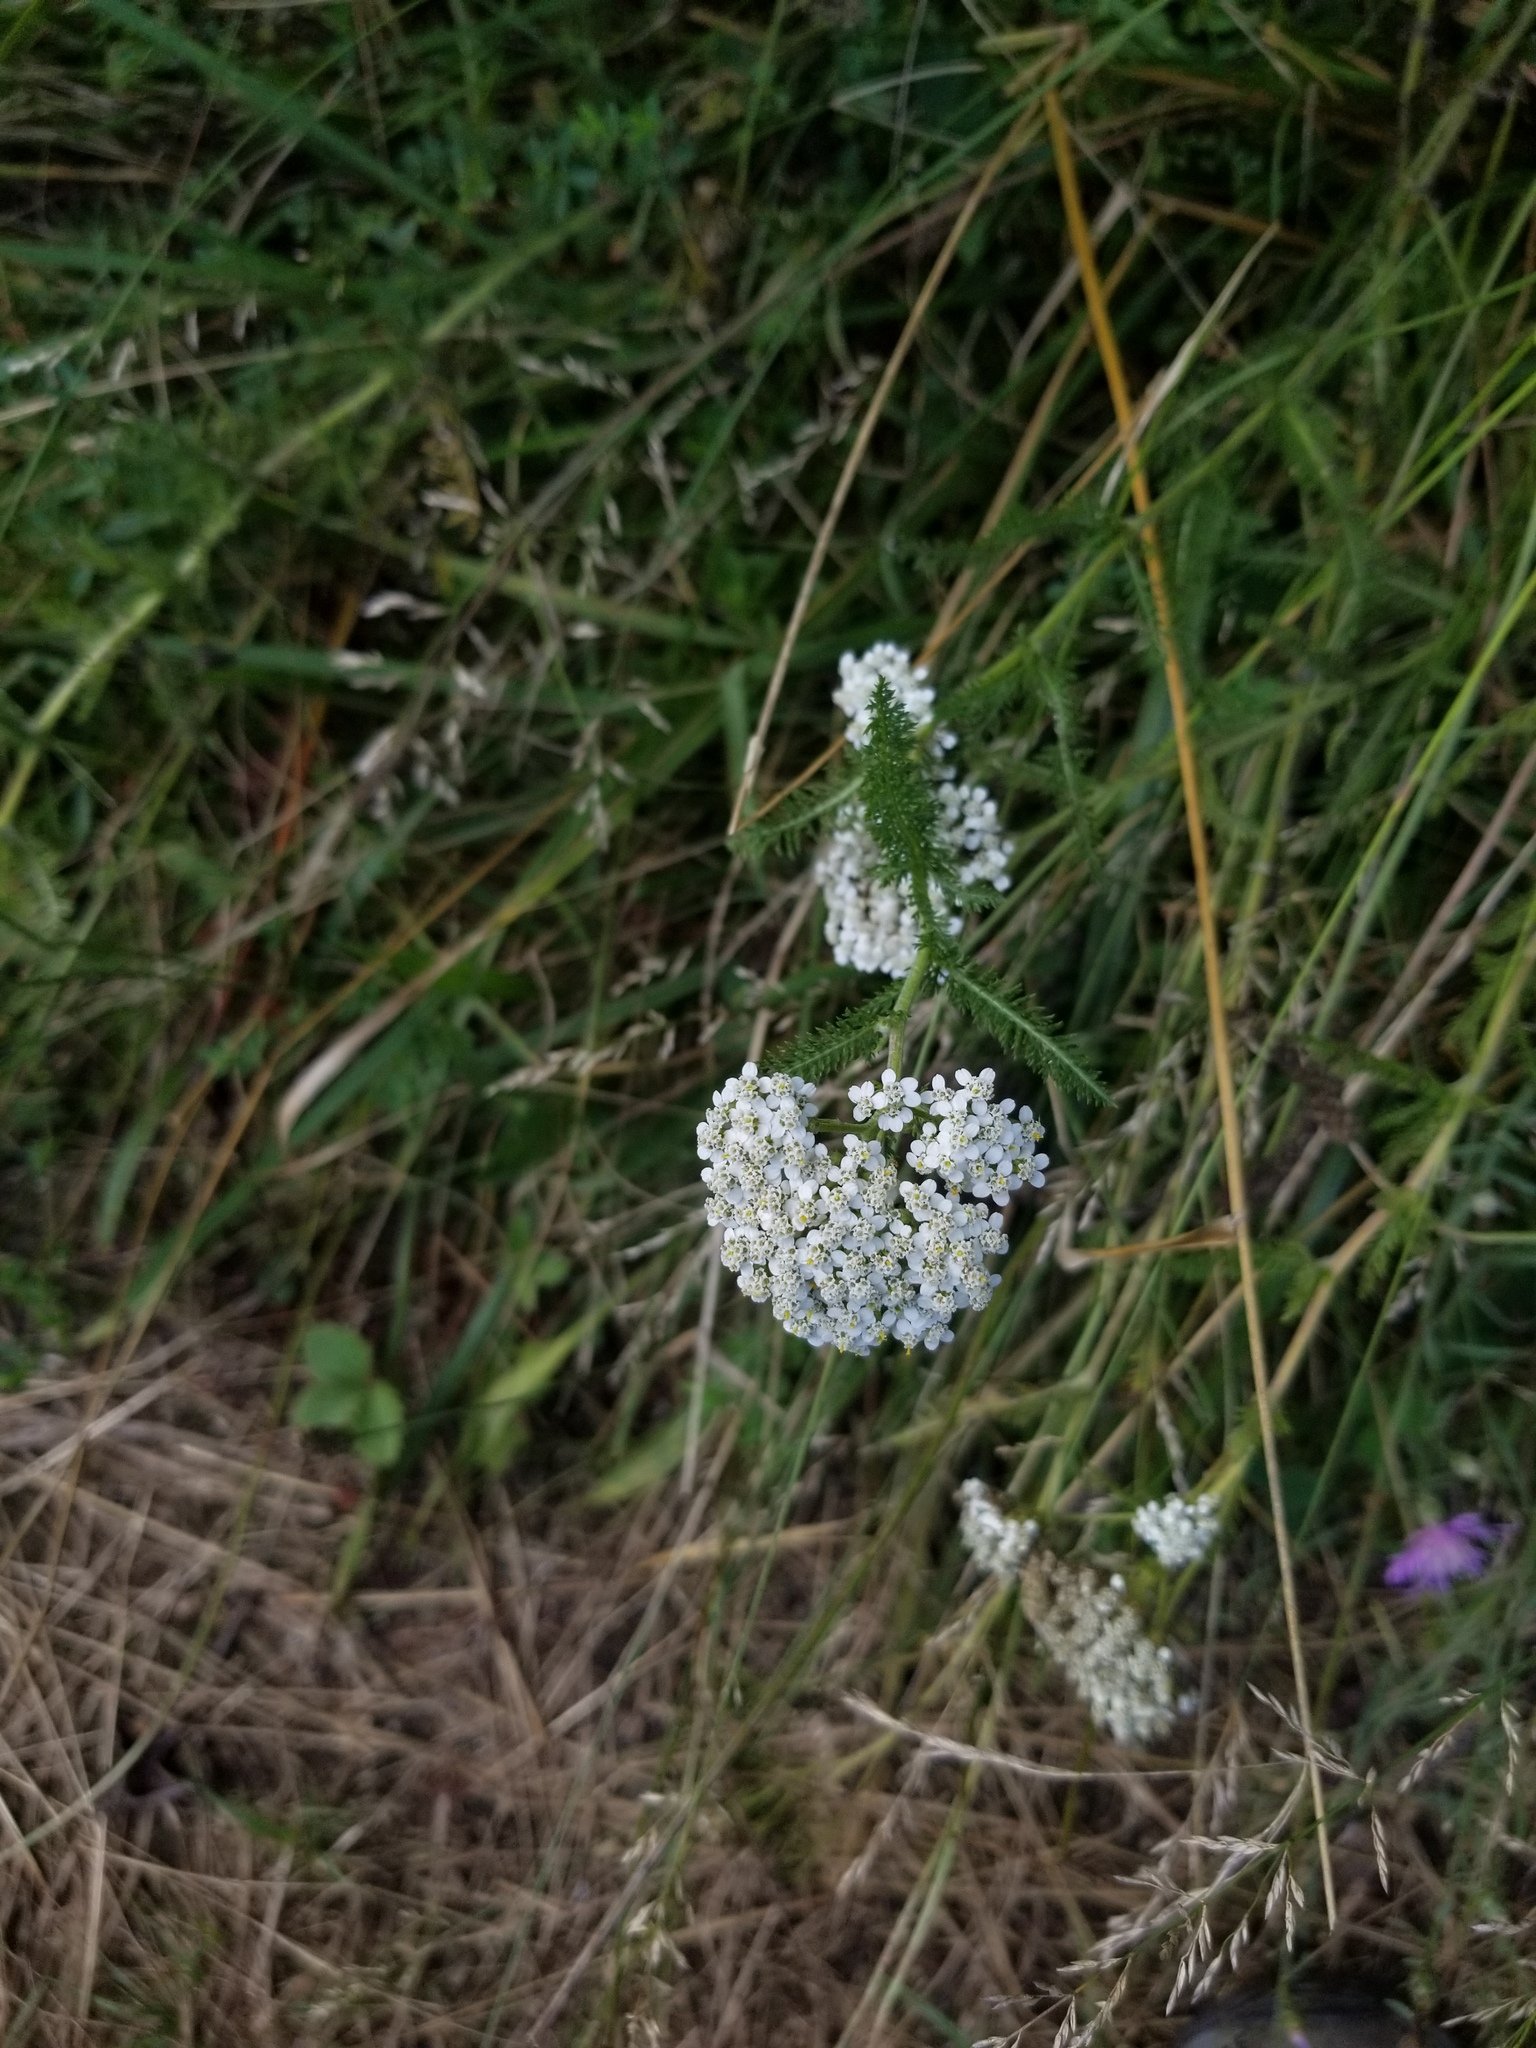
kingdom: Plantae
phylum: Tracheophyta
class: Magnoliopsida
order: Asterales
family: Asteraceae
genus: Achillea
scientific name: Achillea millefolium
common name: Yarrow
